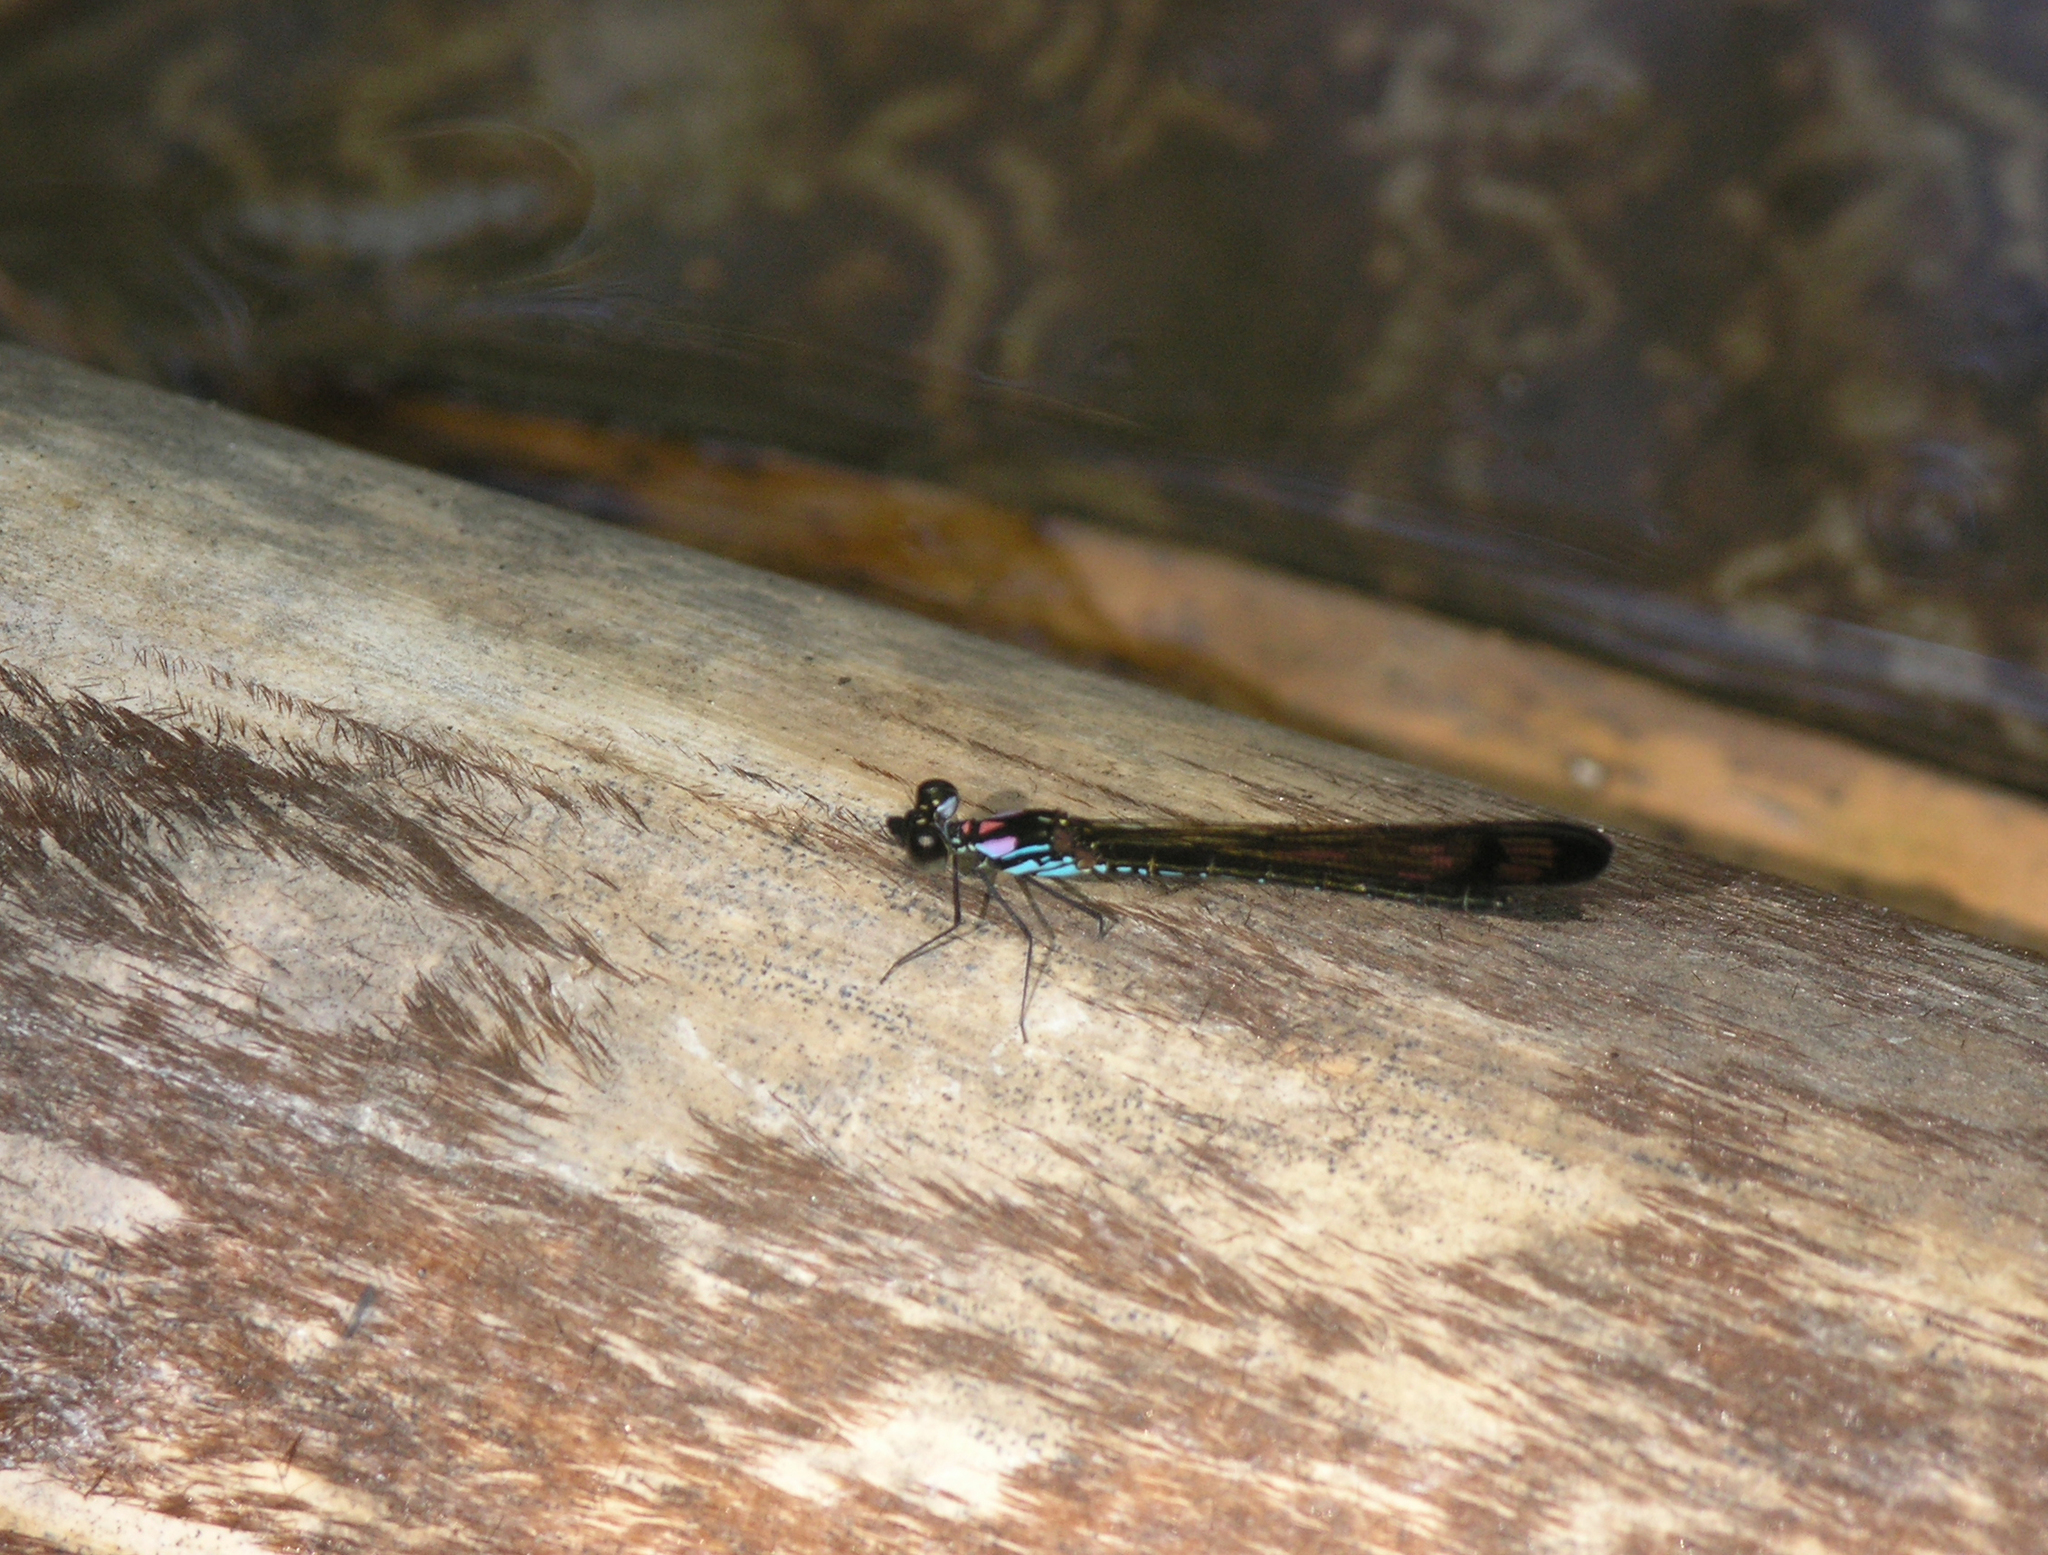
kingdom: Animalia
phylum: Arthropoda
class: Insecta
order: Odonata
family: Chlorocyphidae
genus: Heliocypha
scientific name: Heliocypha biforata
